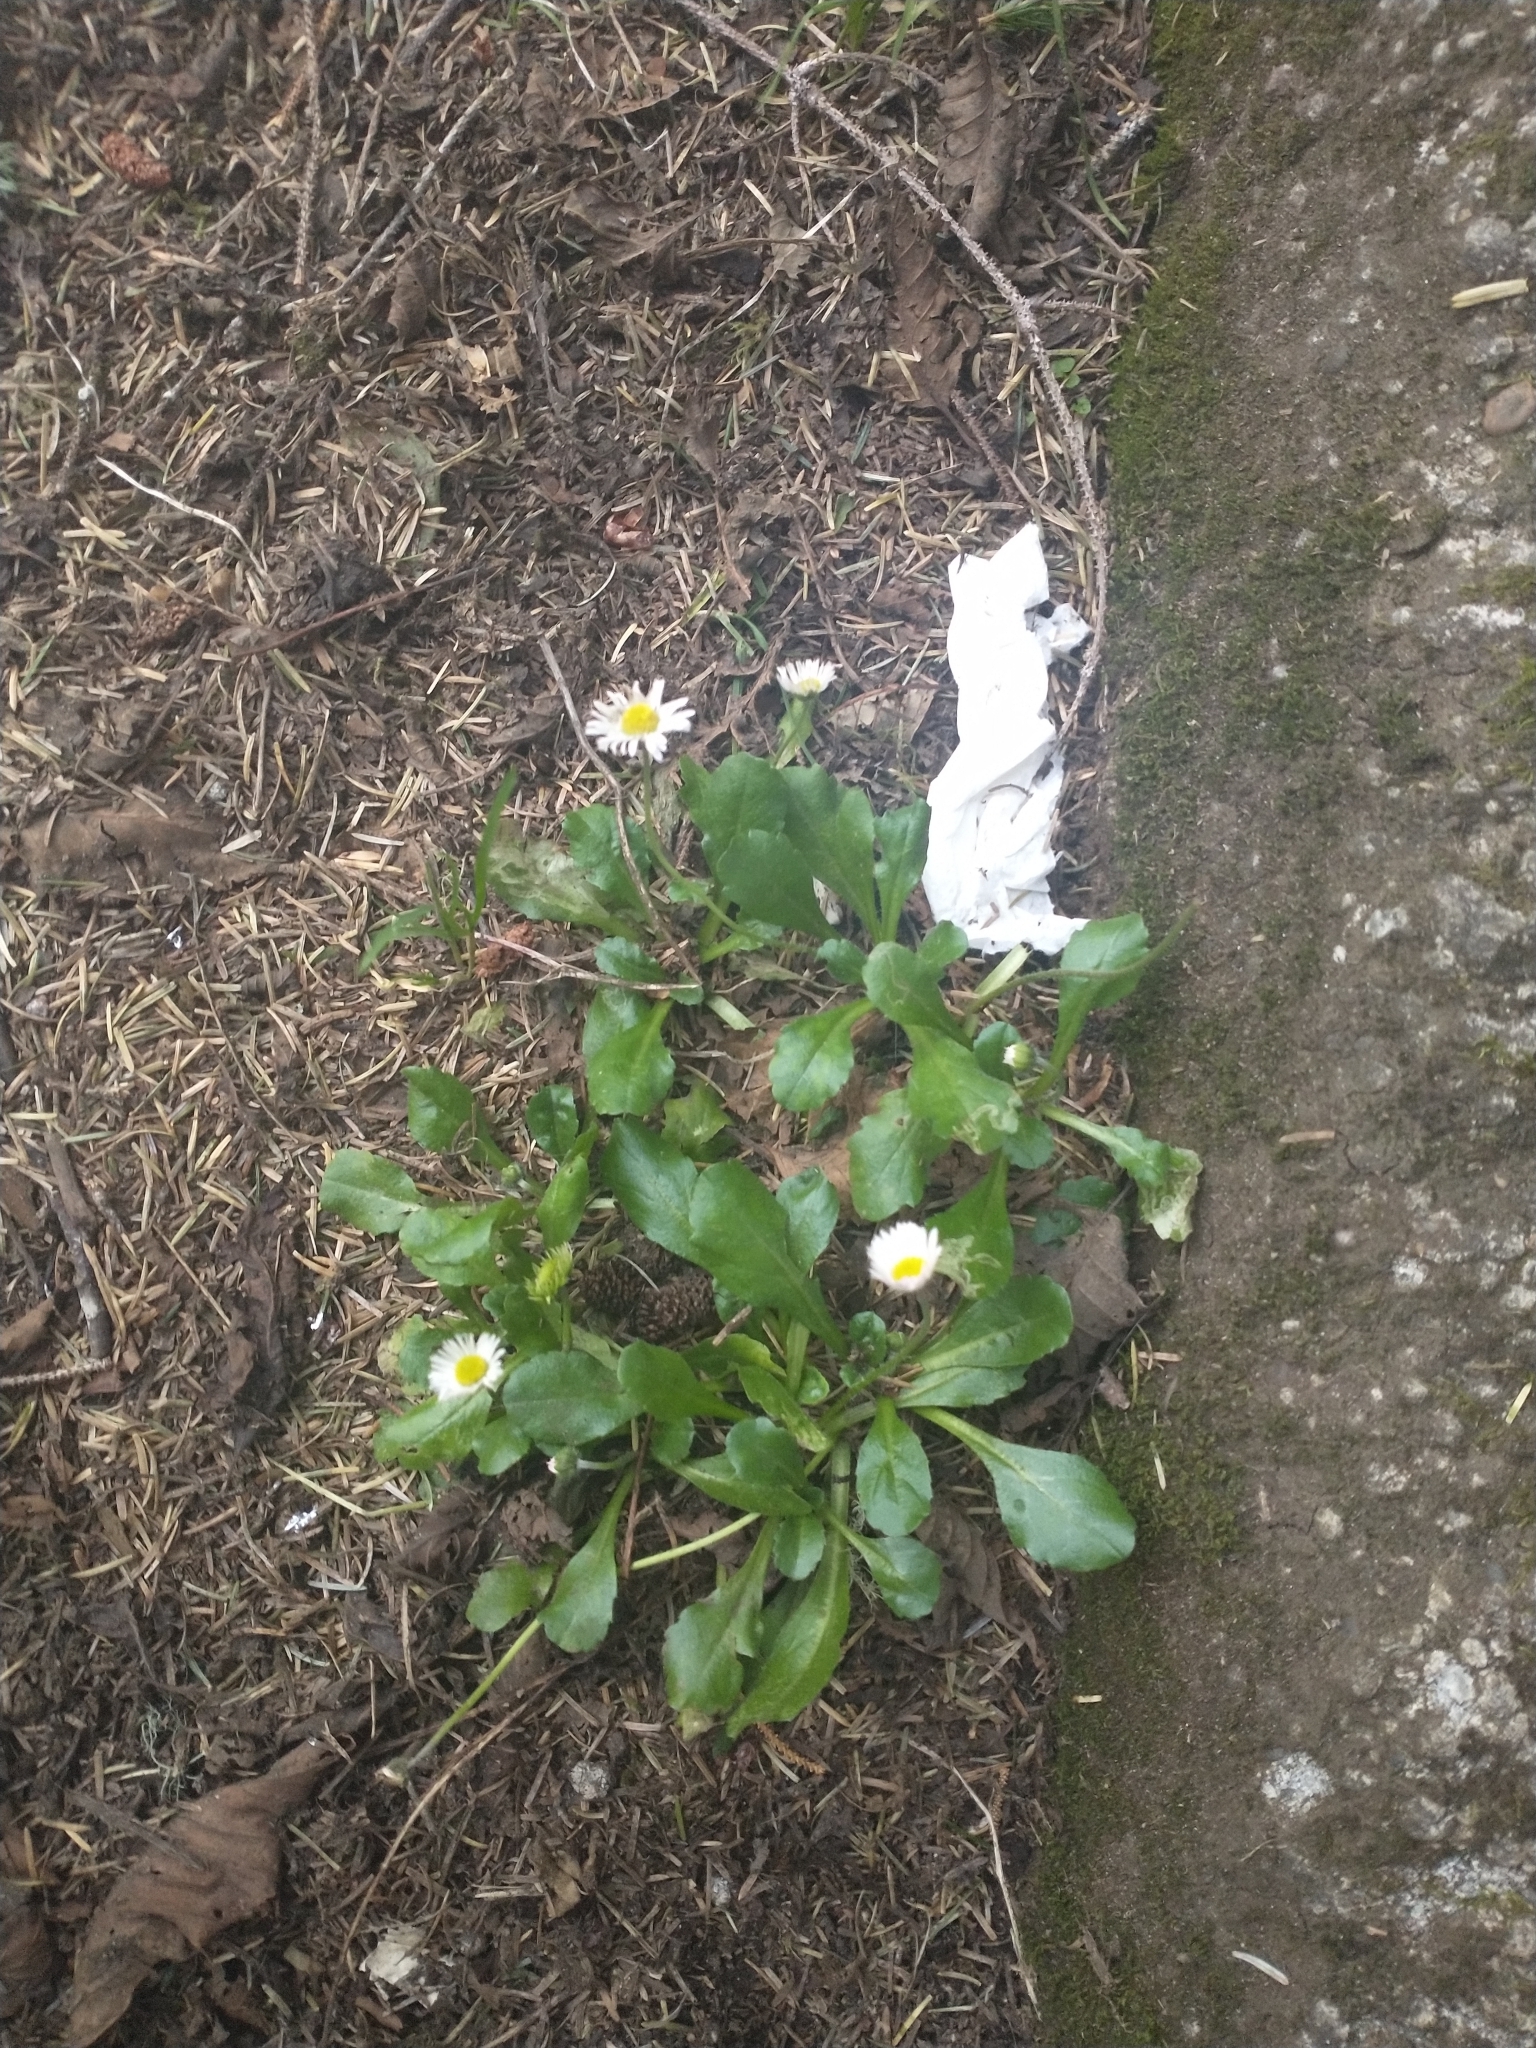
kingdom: Plantae
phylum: Tracheophyta
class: Magnoliopsida
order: Asterales
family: Asteraceae
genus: Bellis
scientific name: Bellis perennis
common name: Lawndaisy
